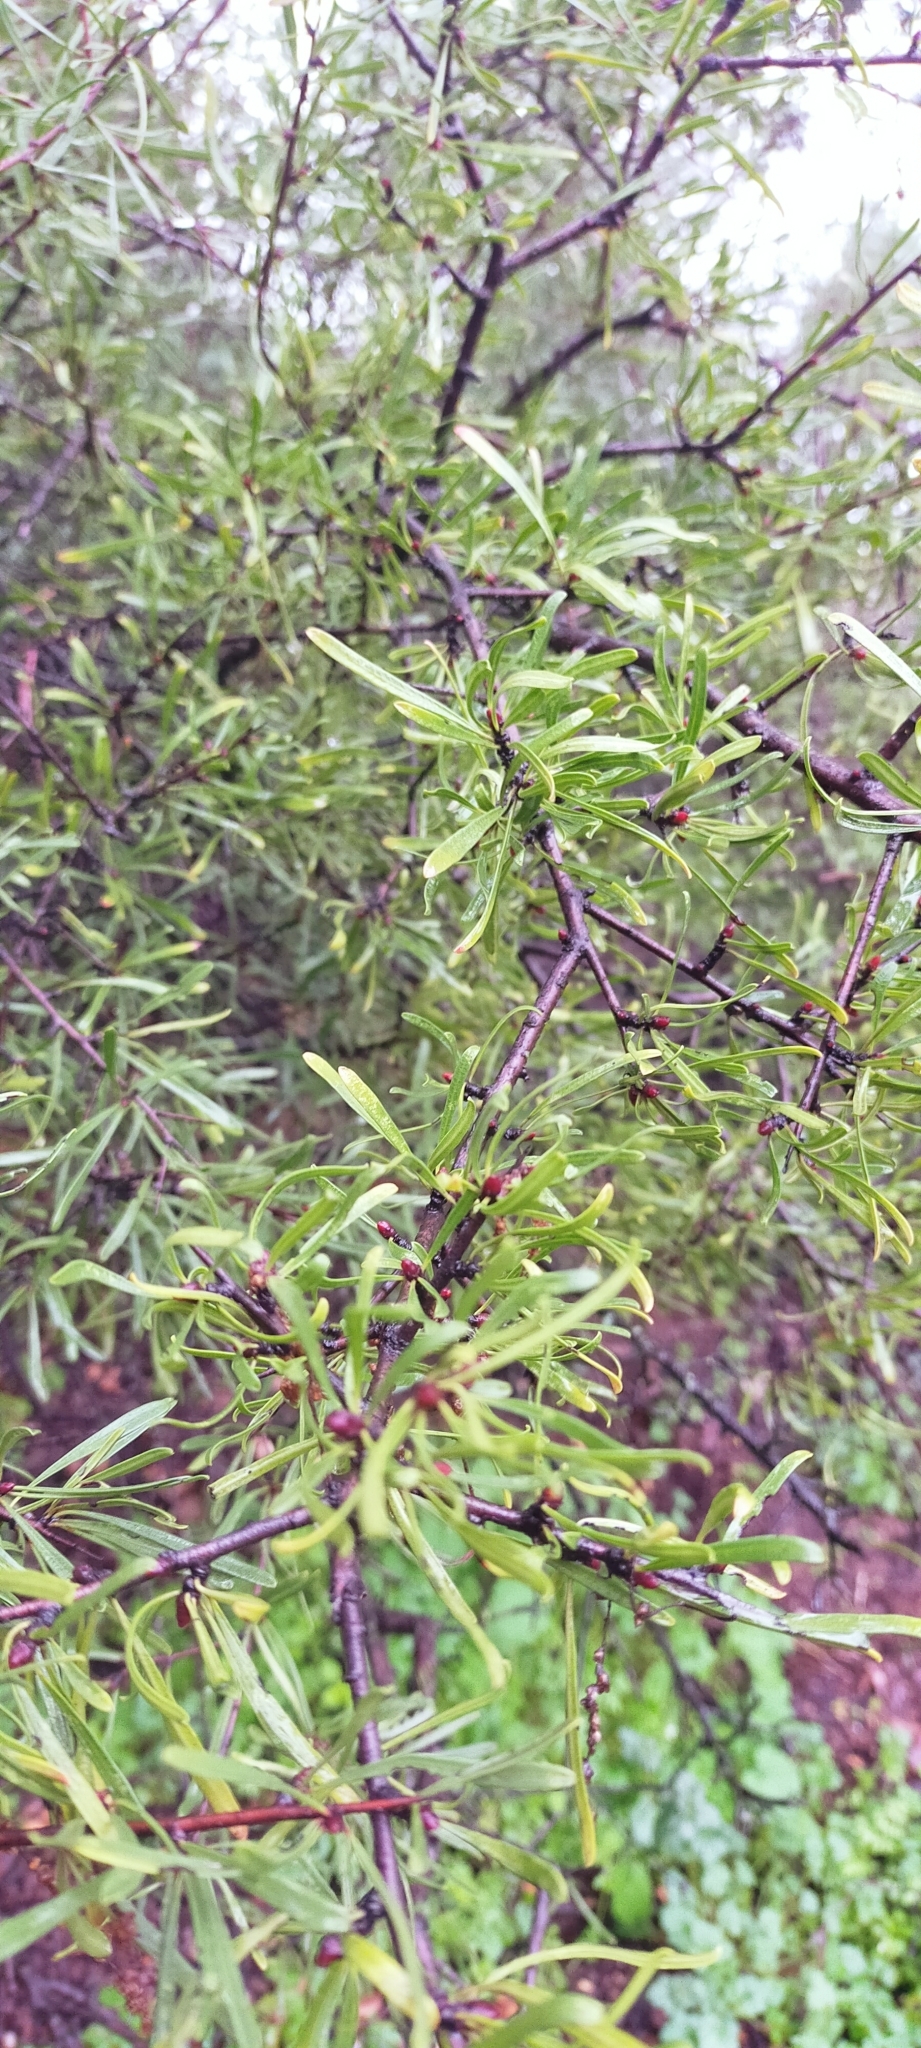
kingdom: Plantae
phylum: Tracheophyta
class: Magnoliopsida
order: Rosales
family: Rhamnaceae
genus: Rhamnus
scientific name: Rhamnus lycioides
